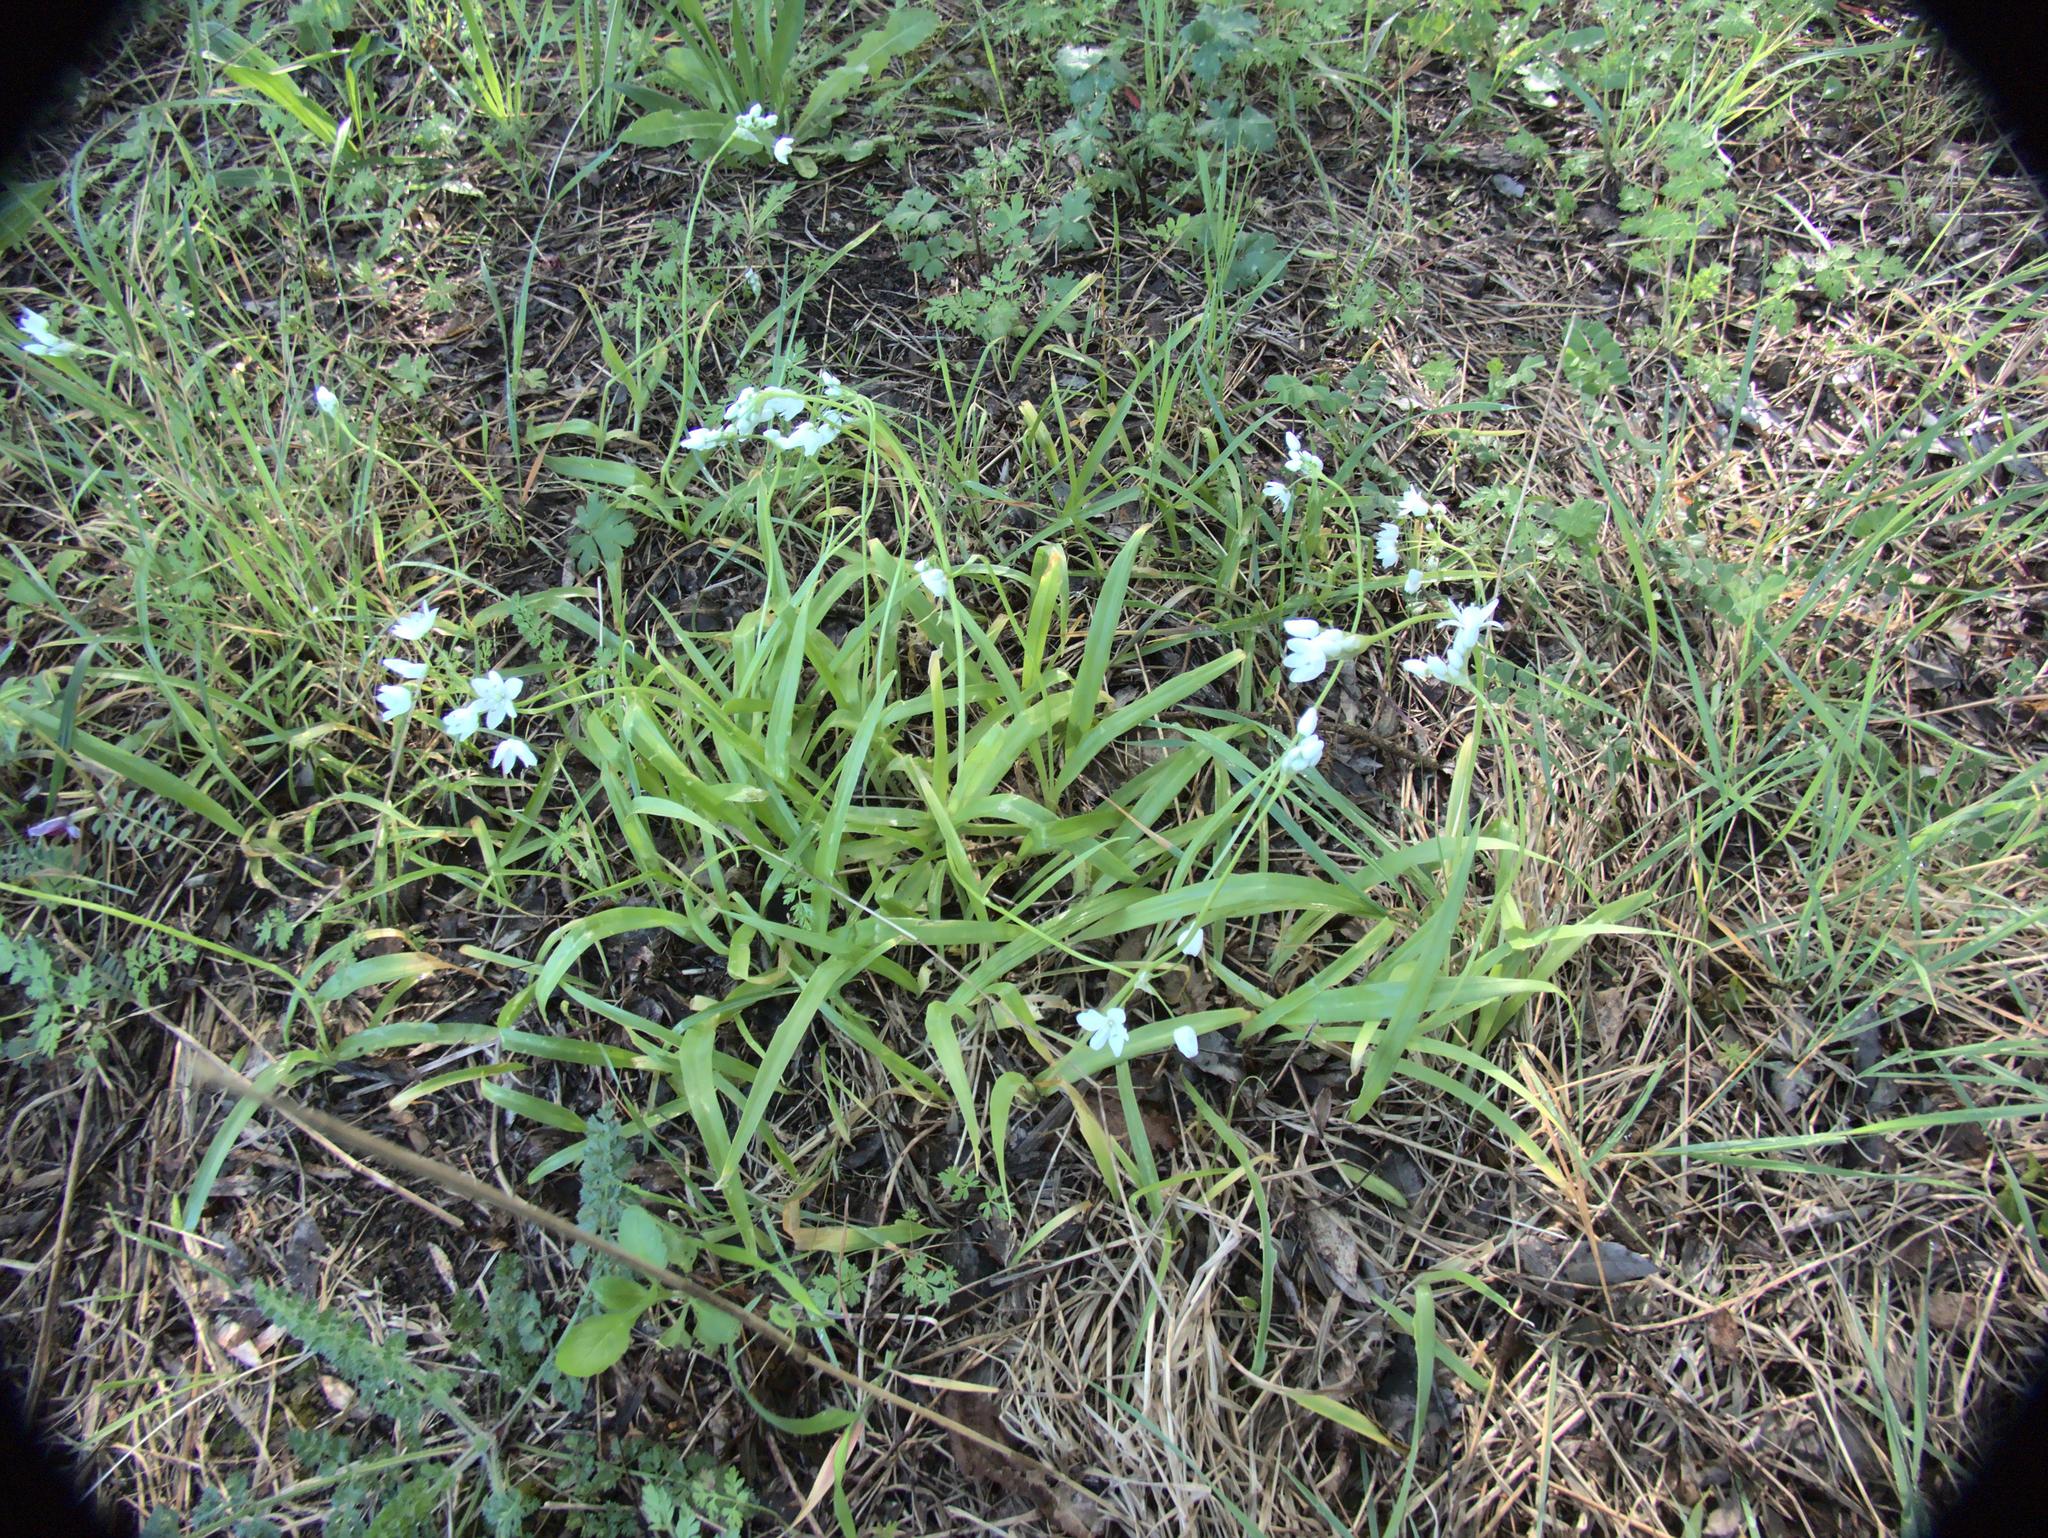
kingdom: Plantae
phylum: Tracheophyta
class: Liliopsida
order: Asparagales
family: Amaryllidaceae
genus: Allium
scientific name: Allium neapolitanum
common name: Neapolitan garlic
